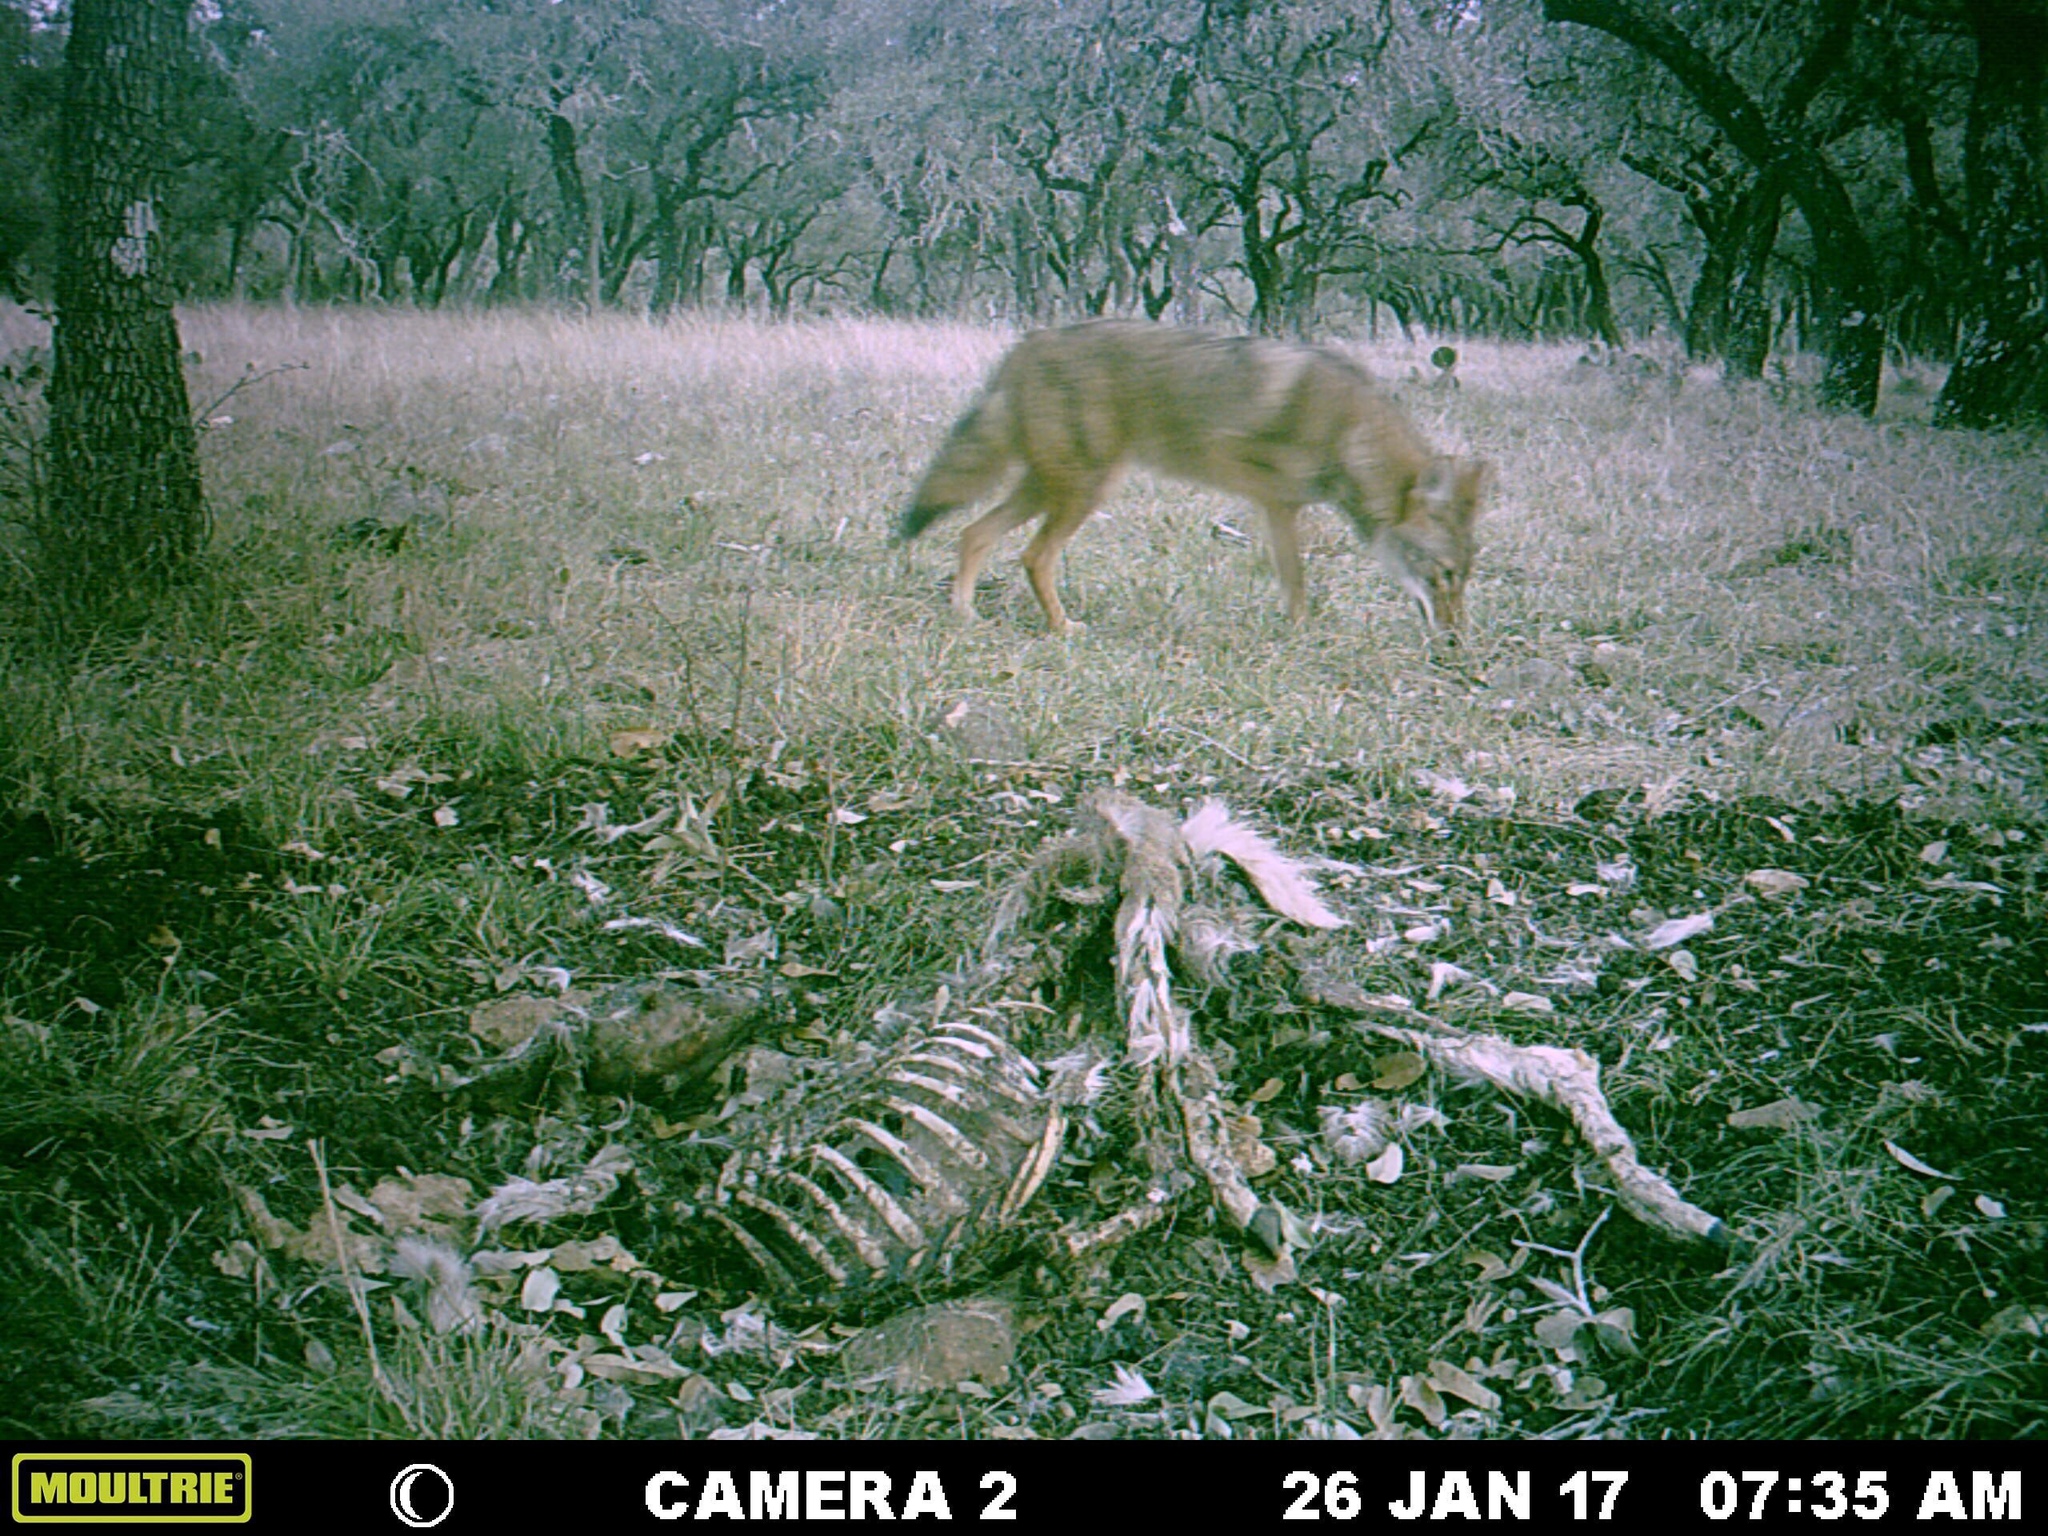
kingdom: Animalia
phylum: Chordata
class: Mammalia
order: Carnivora
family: Canidae
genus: Canis
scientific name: Canis latrans
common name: Coyote
